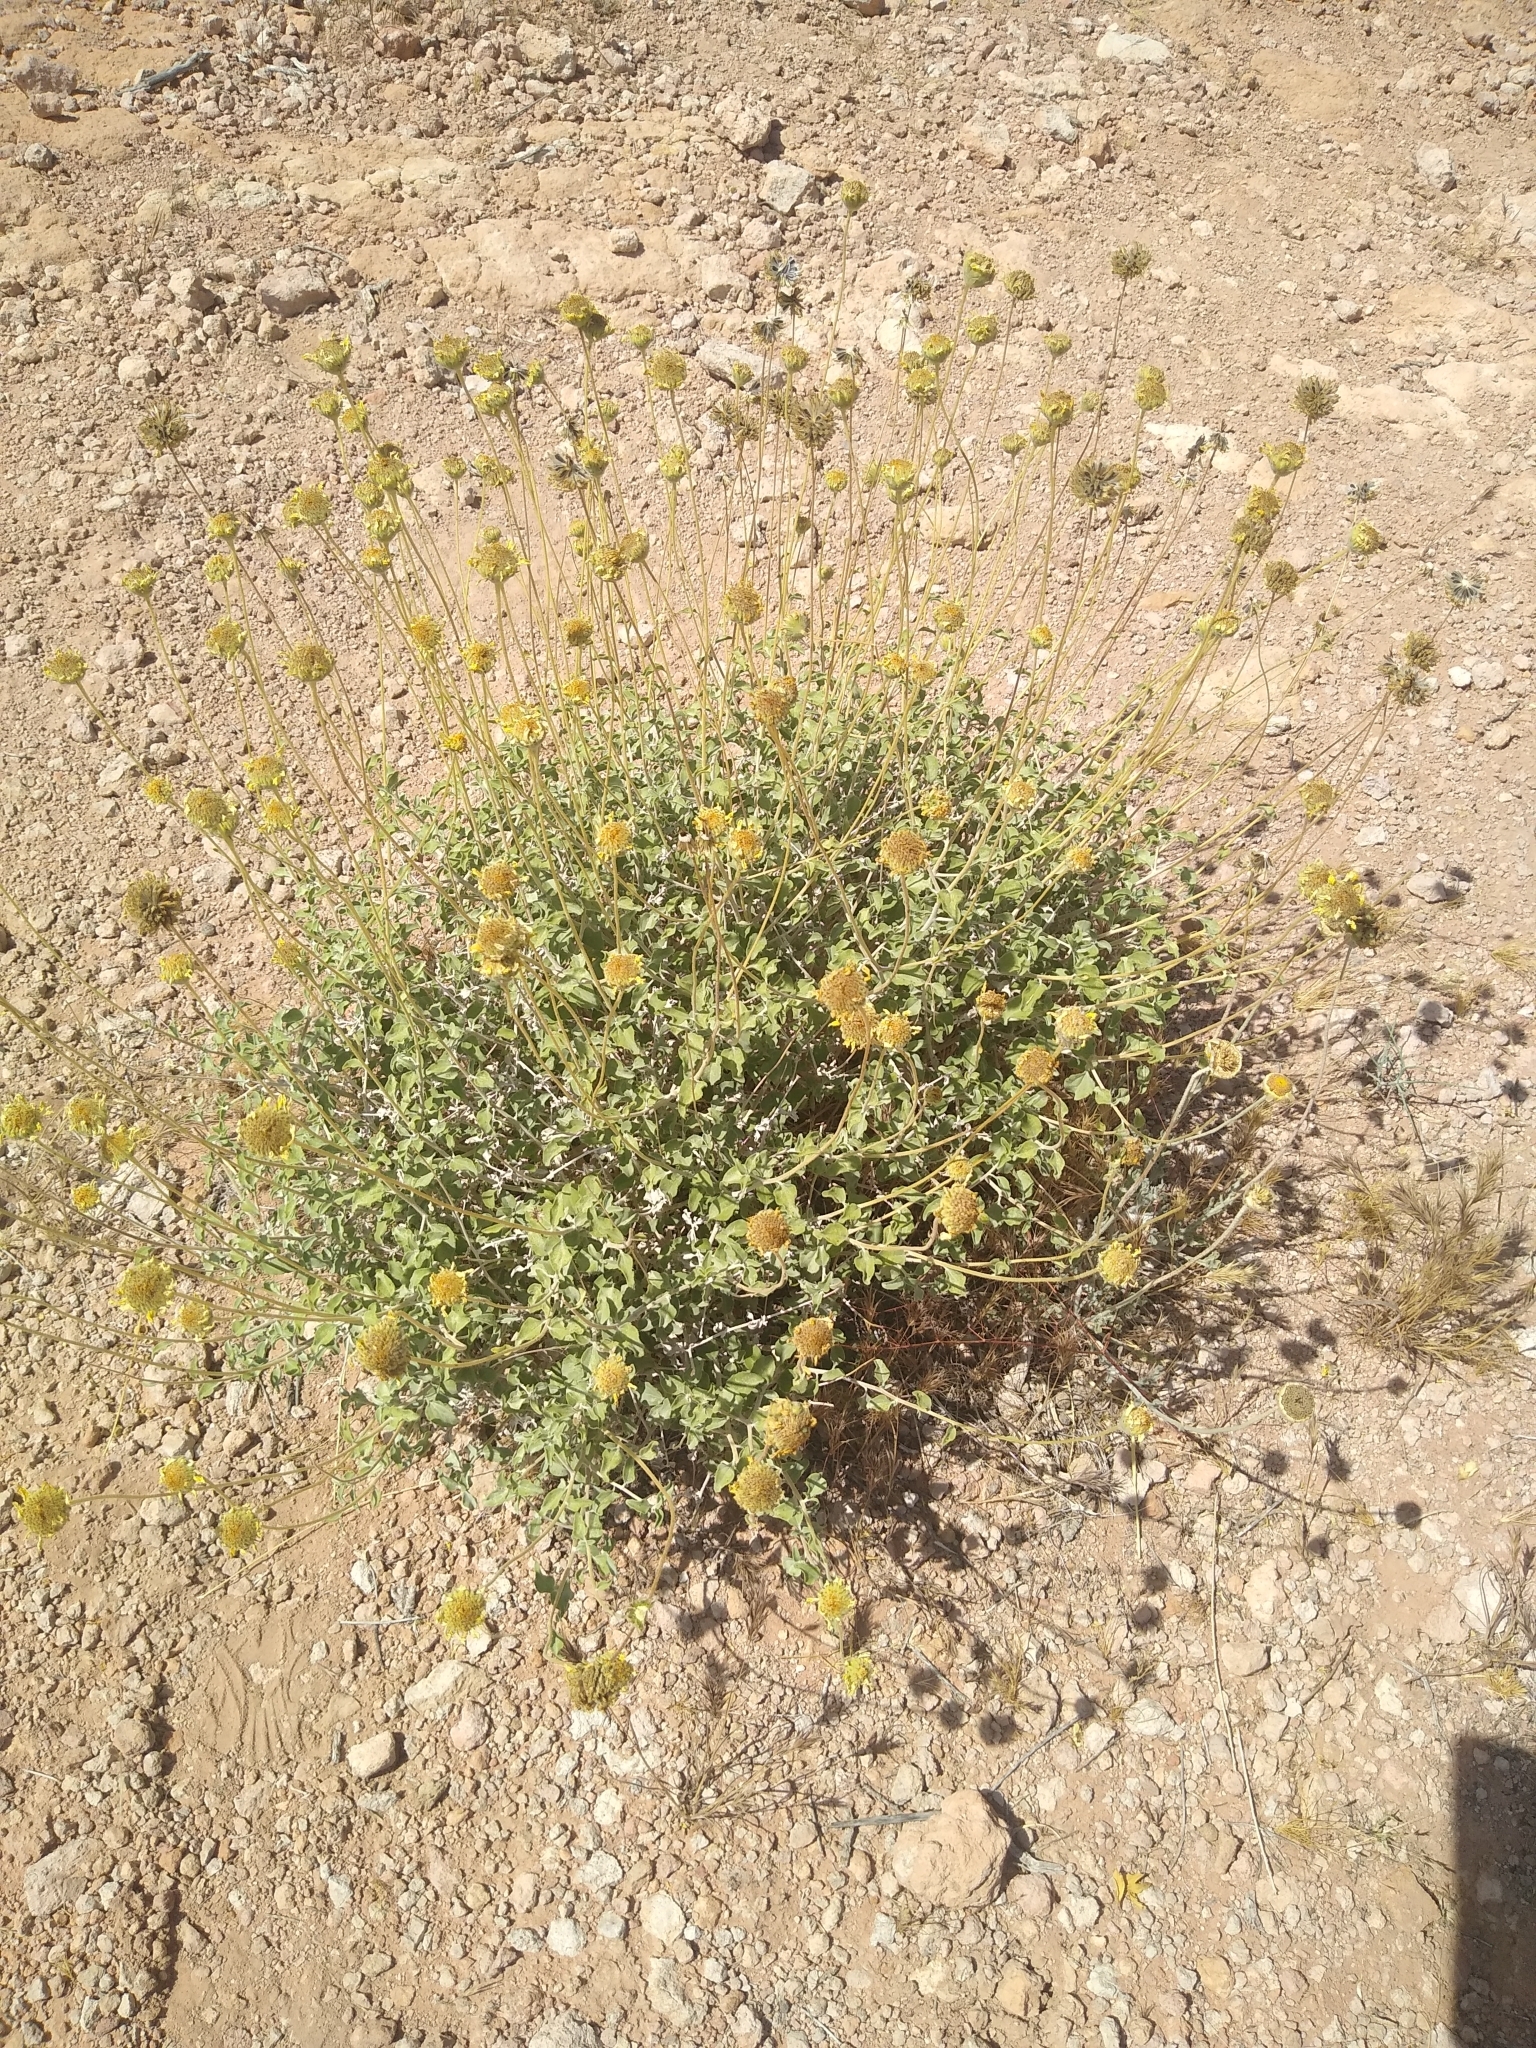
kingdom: Plantae
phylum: Tracheophyta
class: Magnoliopsida
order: Asterales
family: Asteraceae
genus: Encelia
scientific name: Encelia virginensis
